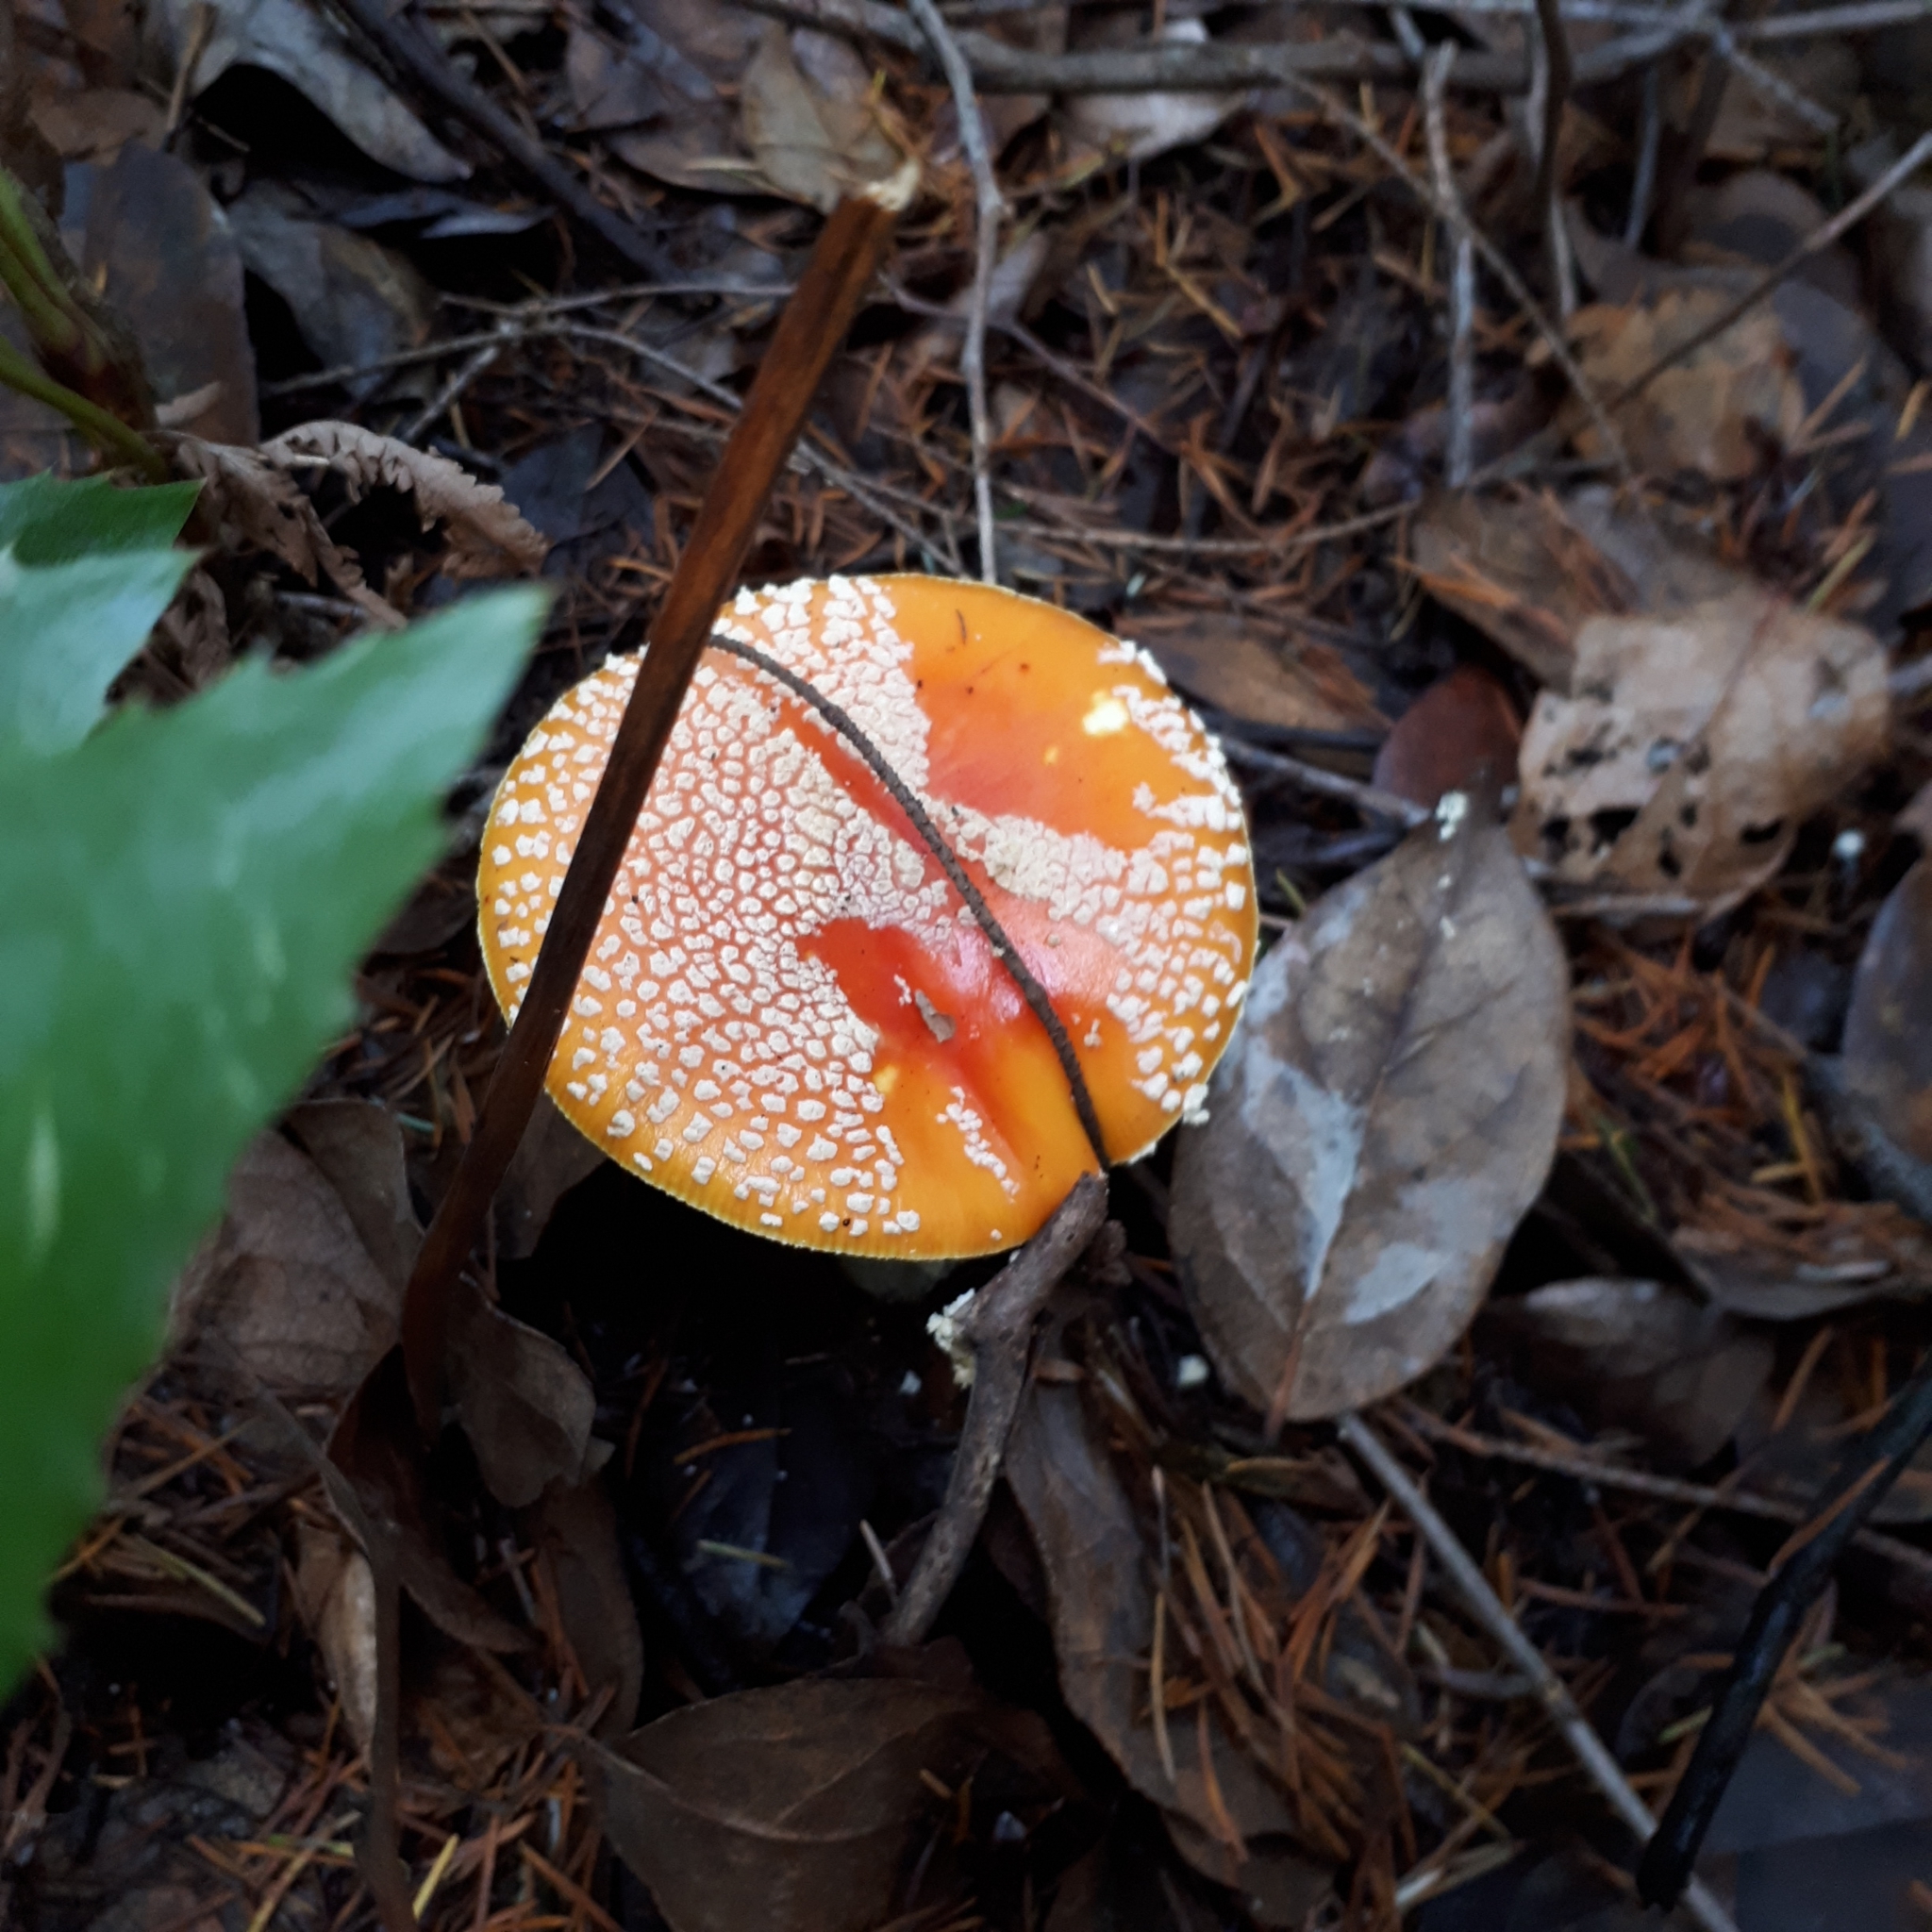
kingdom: Fungi
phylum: Basidiomycota
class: Agaricomycetes
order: Agaricales
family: Amanitaceae
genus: Amanita
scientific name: Amanita muscaria
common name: Fly agaric
